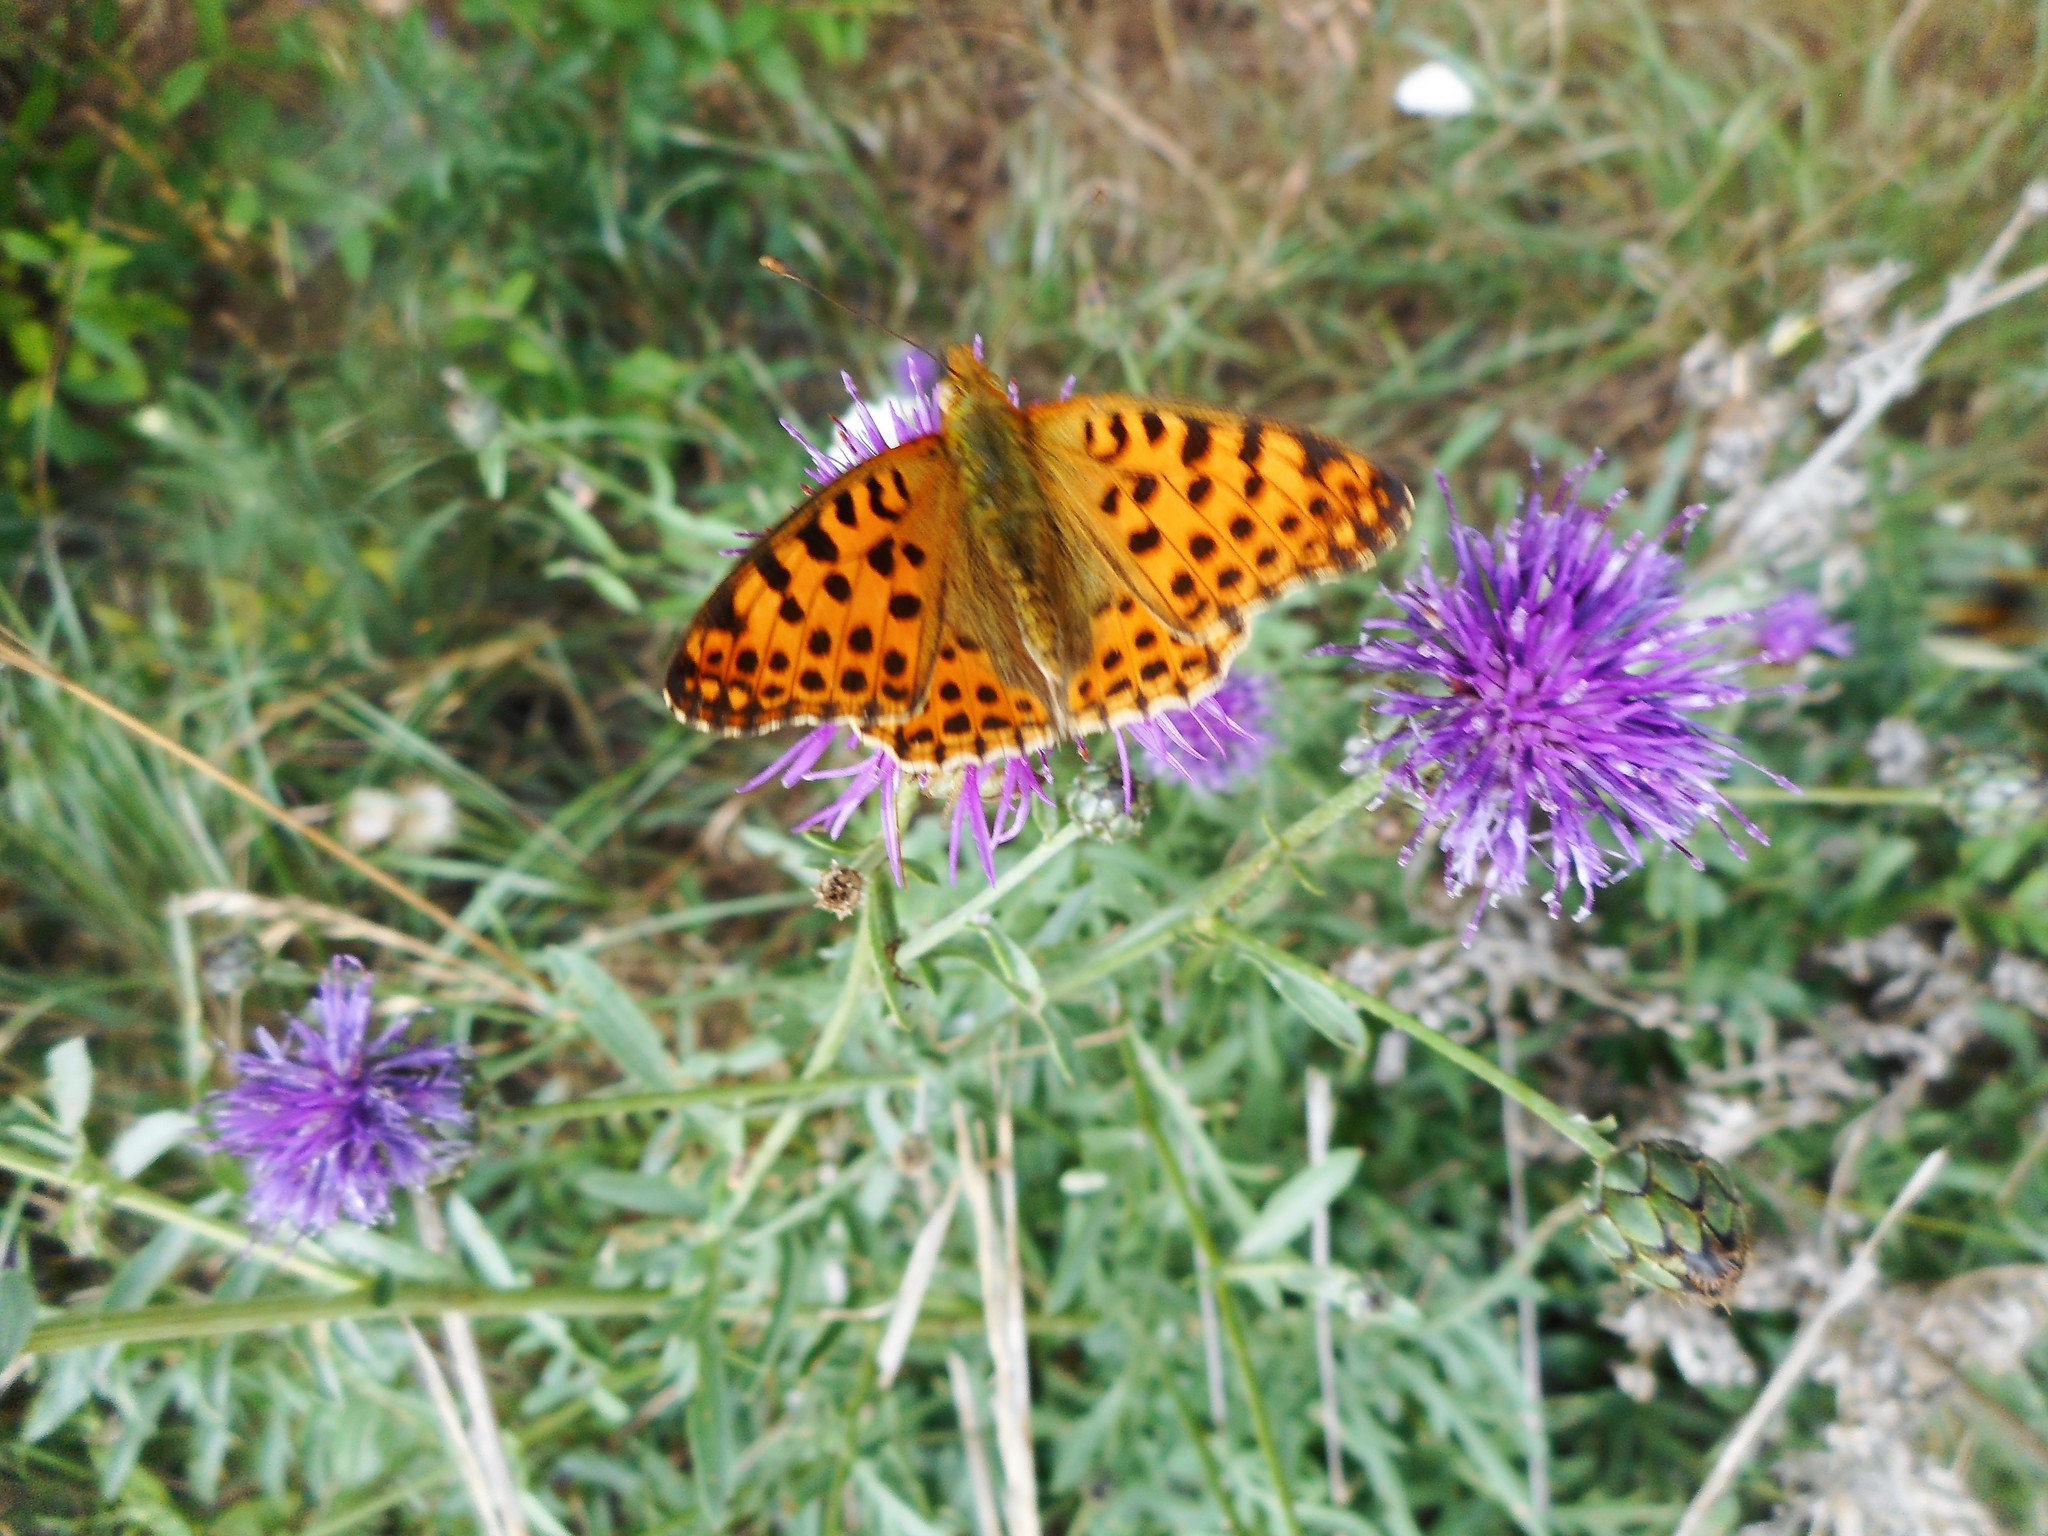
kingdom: Animalia
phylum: Arthropoda
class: Insecta
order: Lepidoptera
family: Nymphalidae
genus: Issoria
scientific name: Issoria lathonia
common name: Queen of spain fritillary
